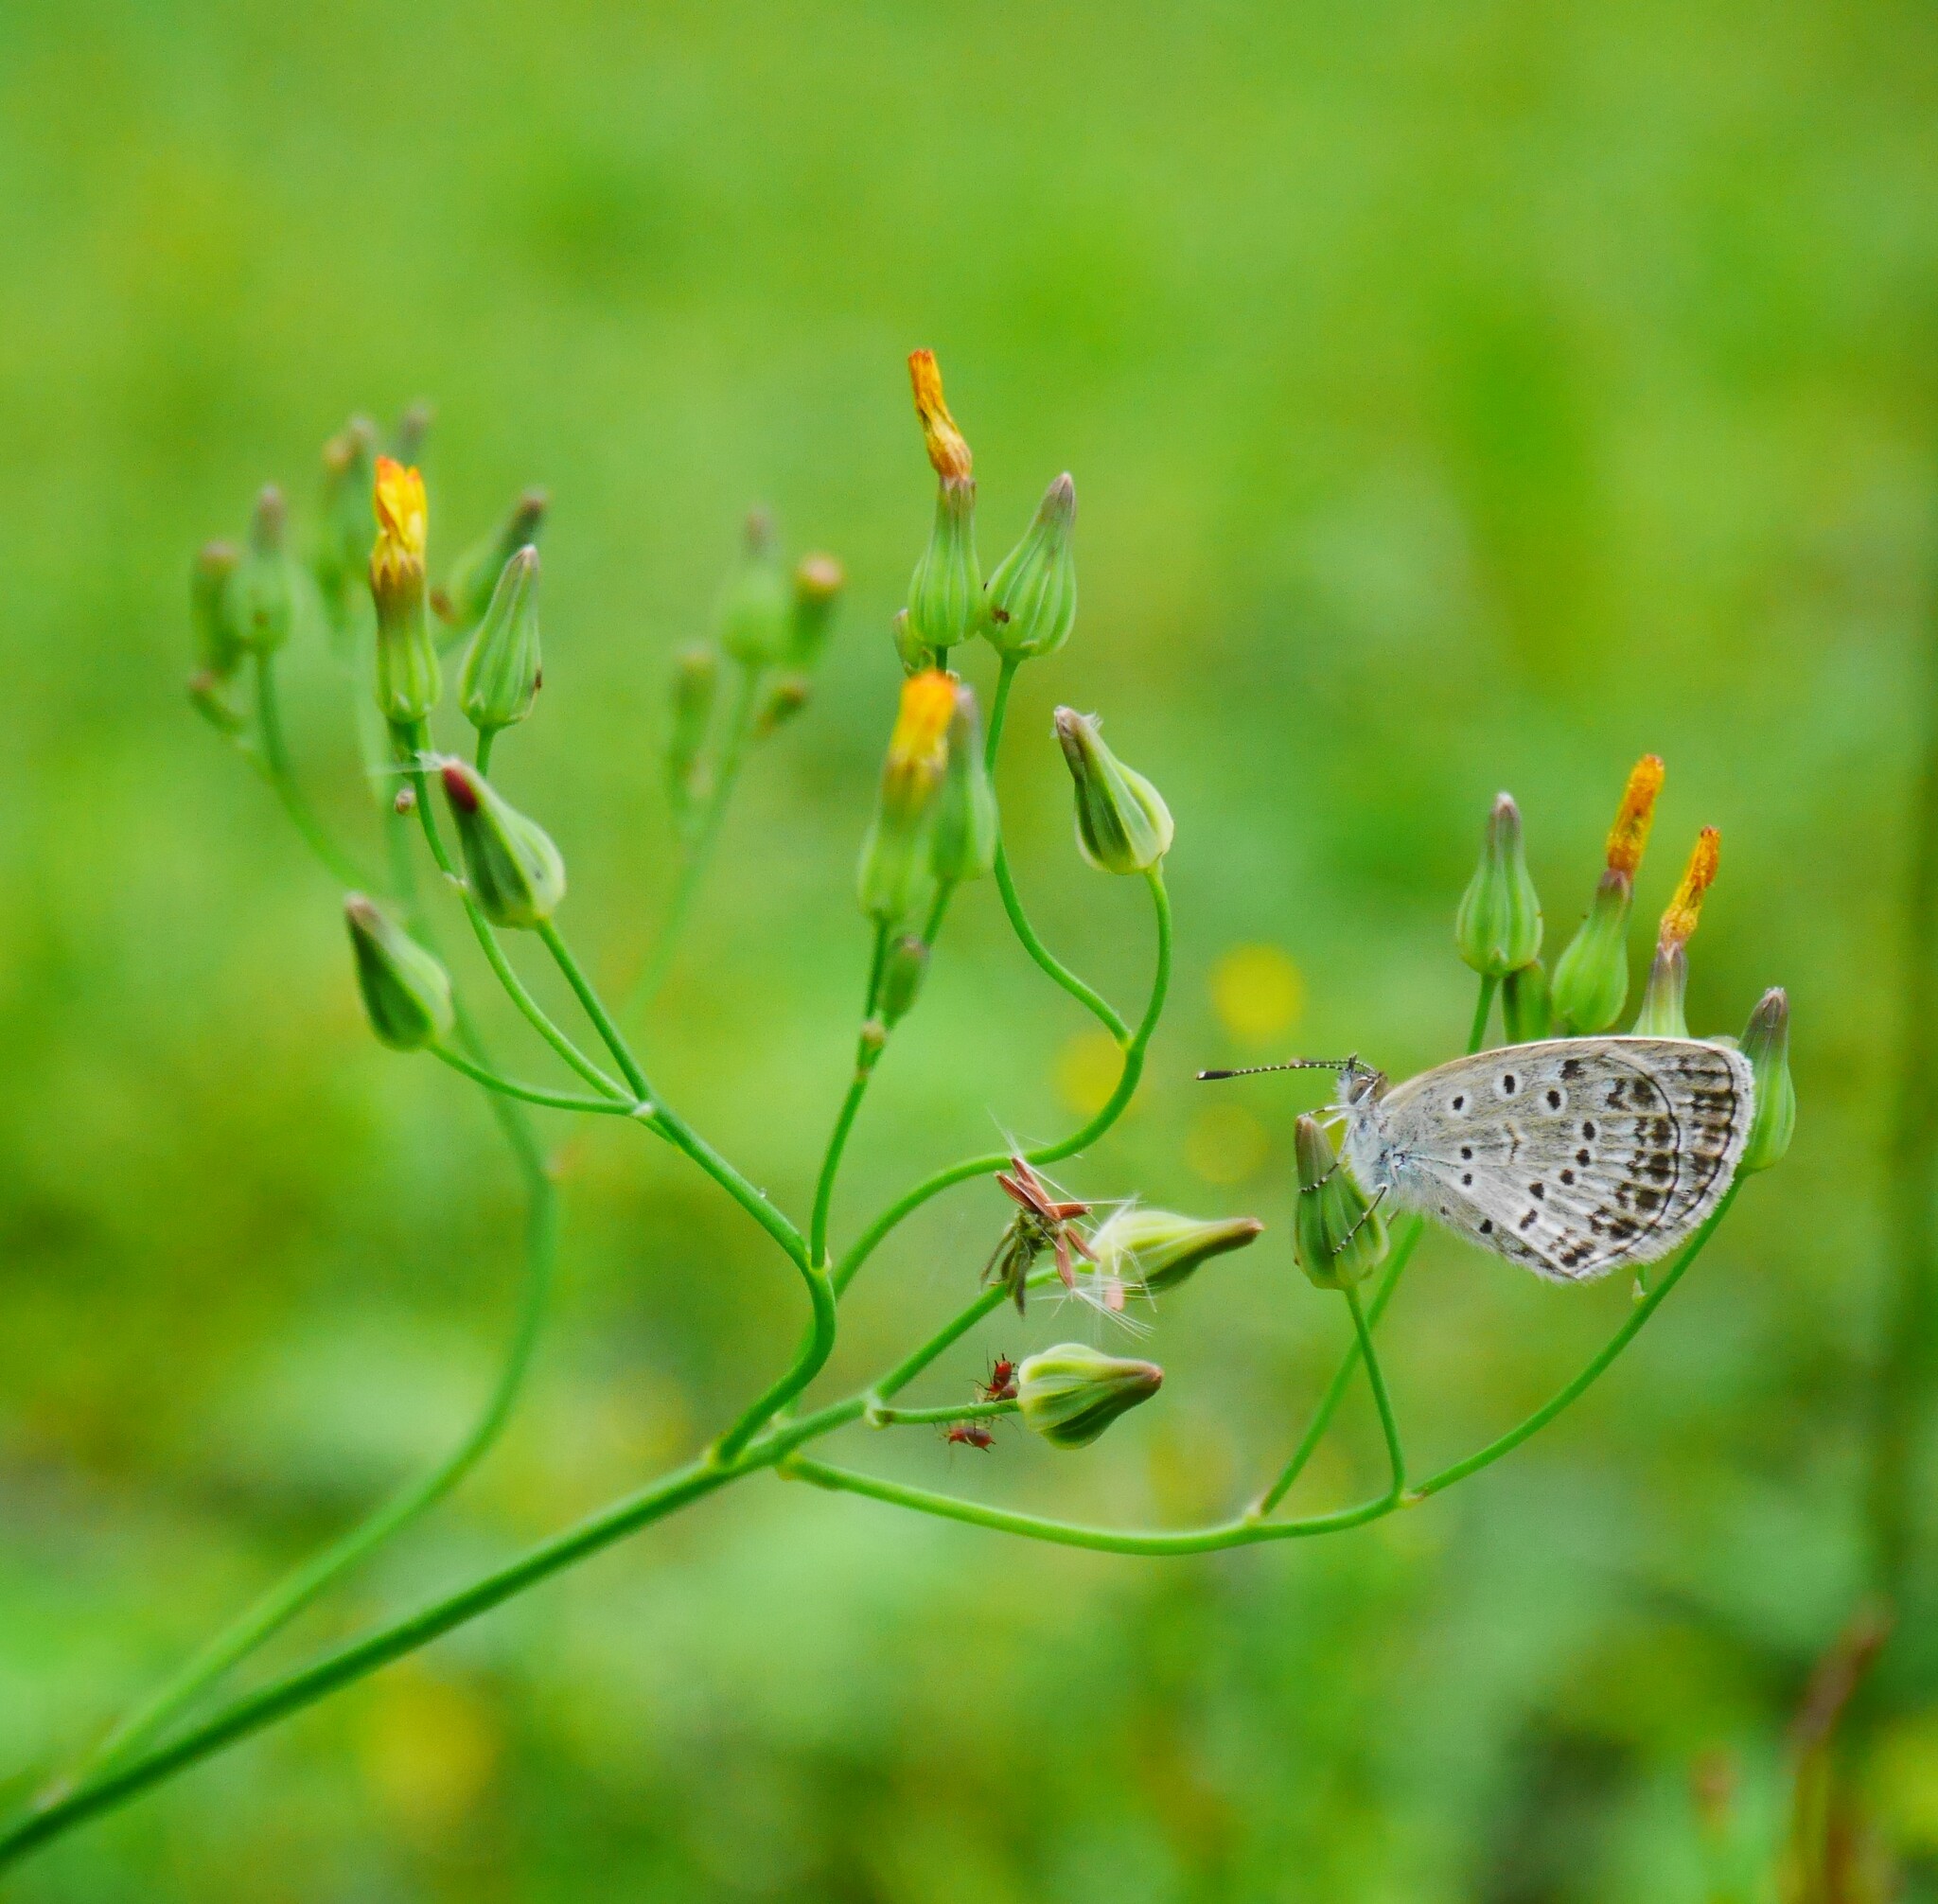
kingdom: Animalia
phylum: Arthropoda
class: Insecta
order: Lepidoptera
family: Lycaenidae
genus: Pseudozizeeria
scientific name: Pseudozizeeria maha
